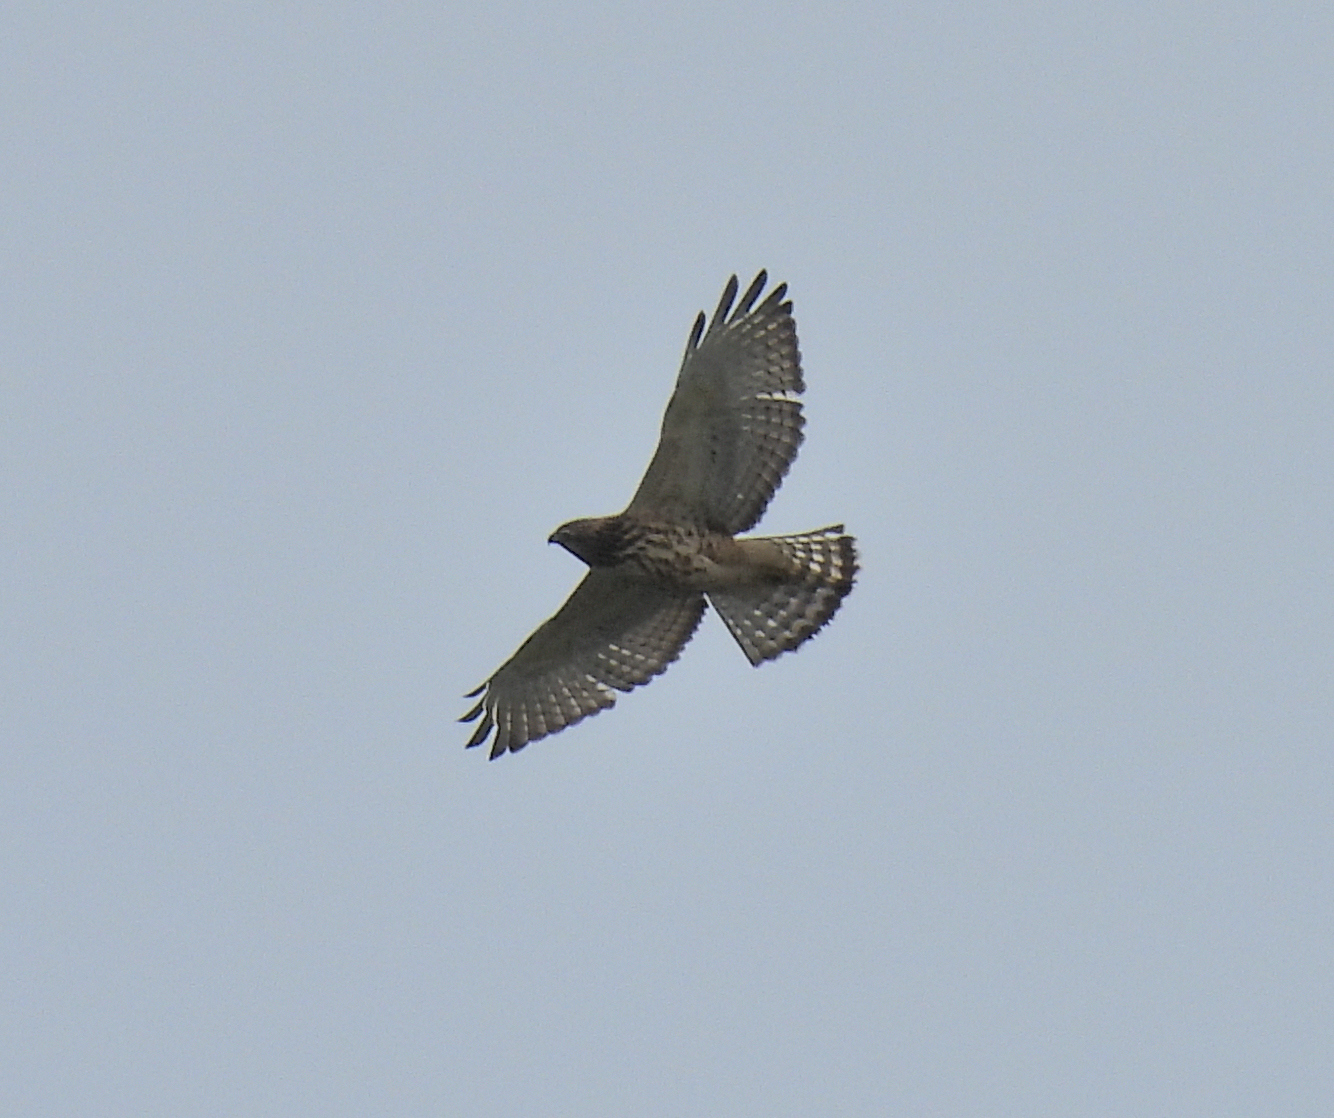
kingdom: Animalia
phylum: Chordata
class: Aves
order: Accipitriformes
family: Accipitridae
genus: Buteo
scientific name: Buteo platypterus
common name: Broad-winged hawk
